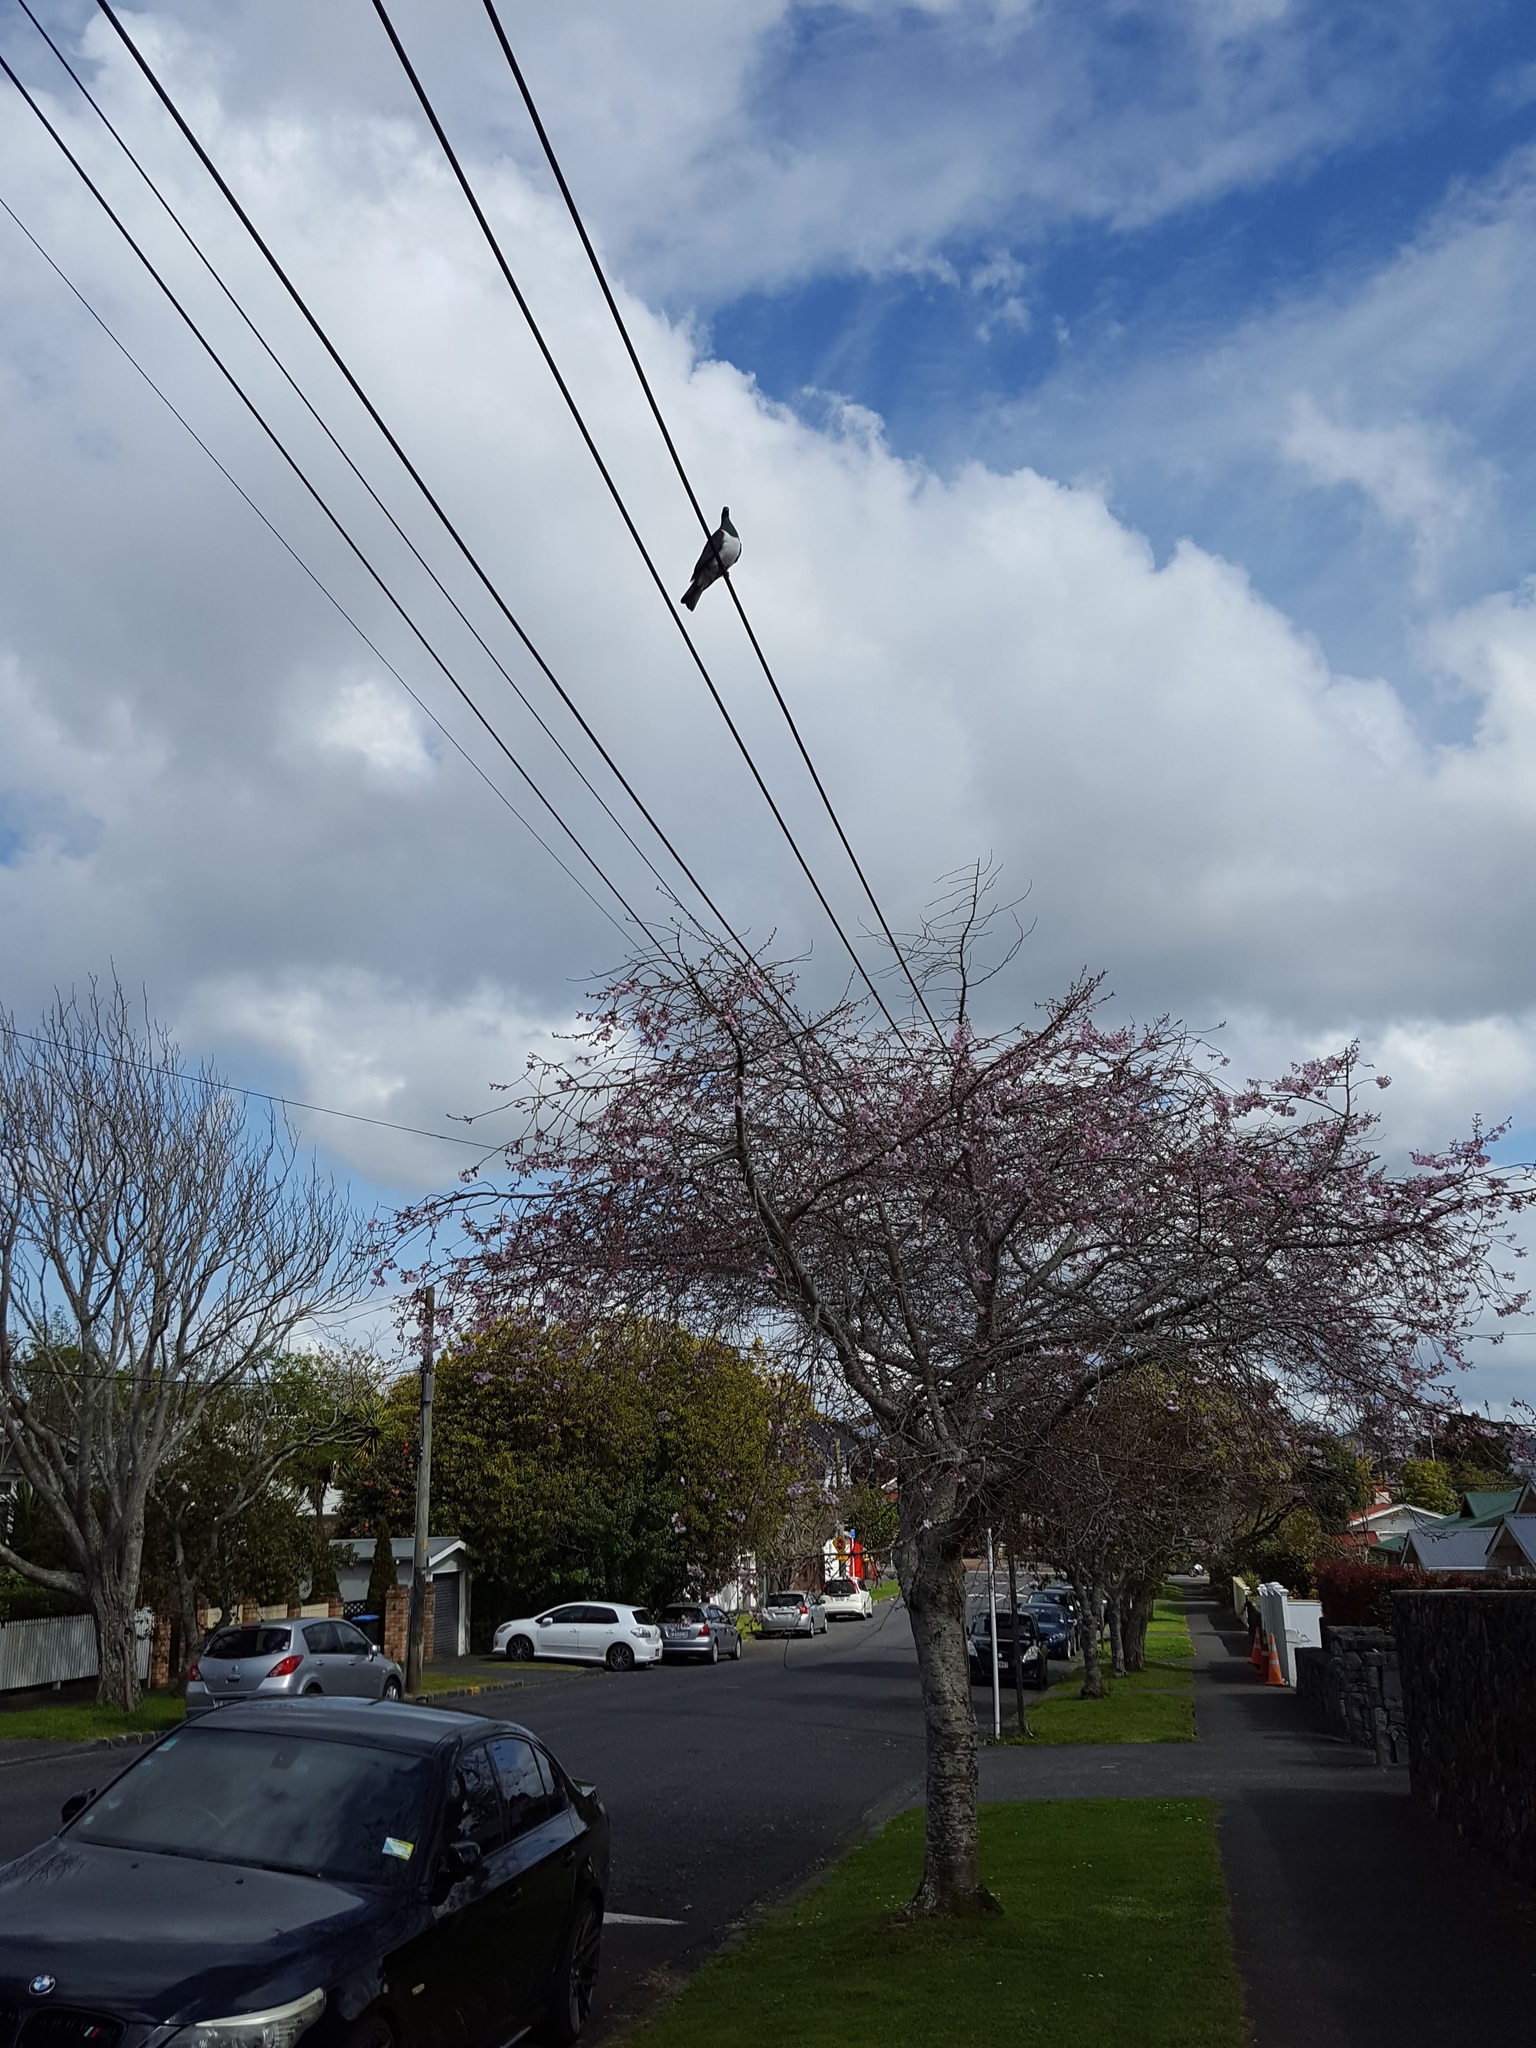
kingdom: Animalia
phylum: Chordata
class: Aves
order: Columbiformes
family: Columbidae
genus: Hemiphaga
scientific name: Hemiphaga novaeseelandiae
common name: New zealand pigeon
